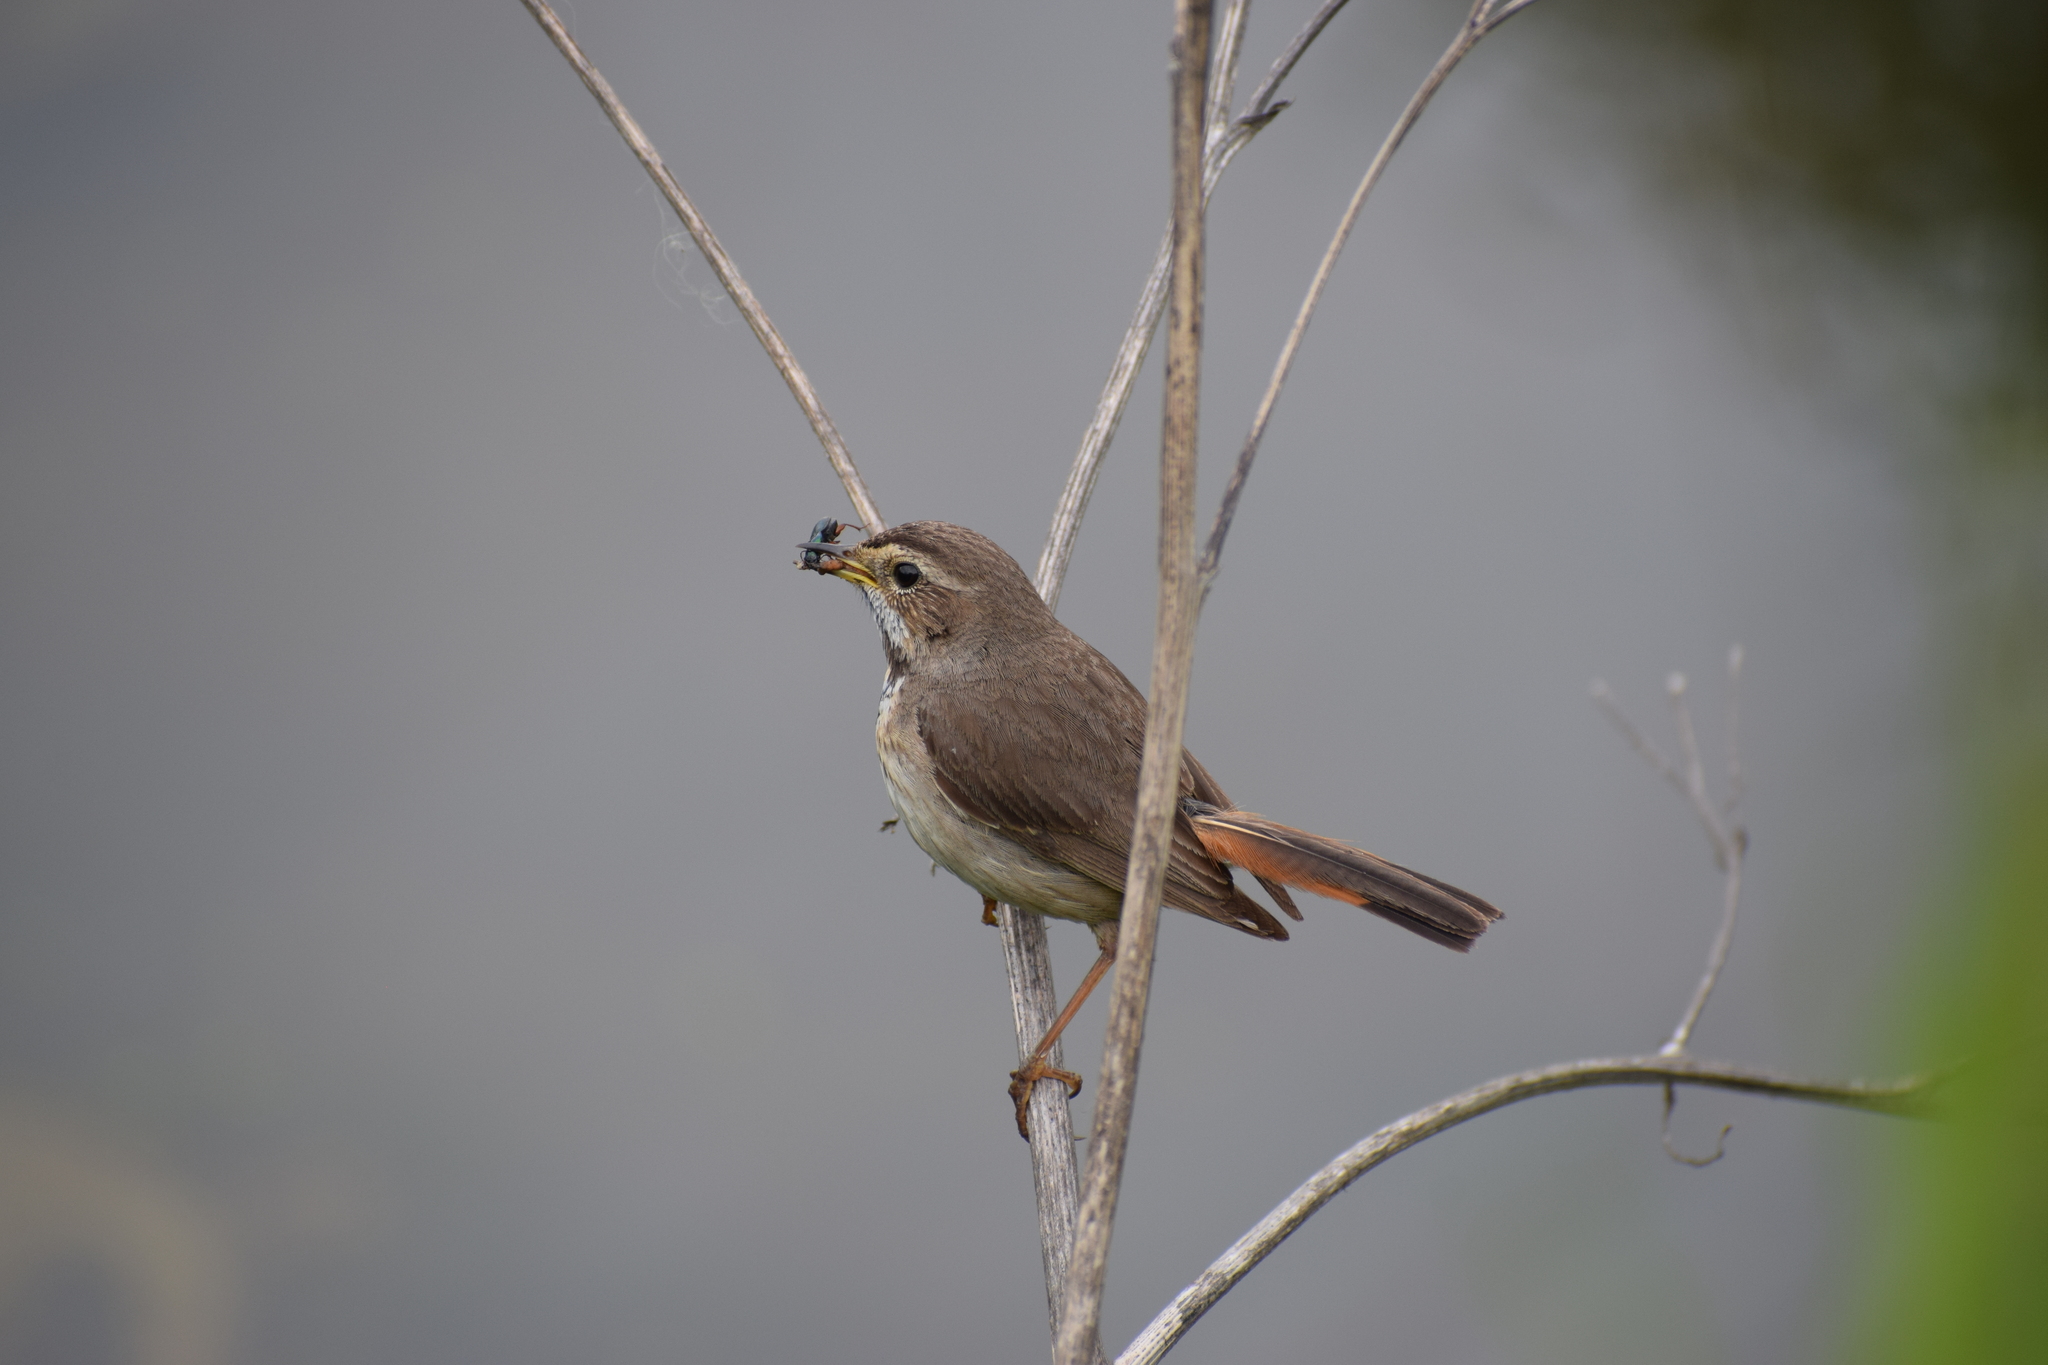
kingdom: Animalia
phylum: Chordata
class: Aves
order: Passeriformes
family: Muscicapidae
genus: Luscinia
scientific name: Luscinia svecica
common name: Bluethroat
